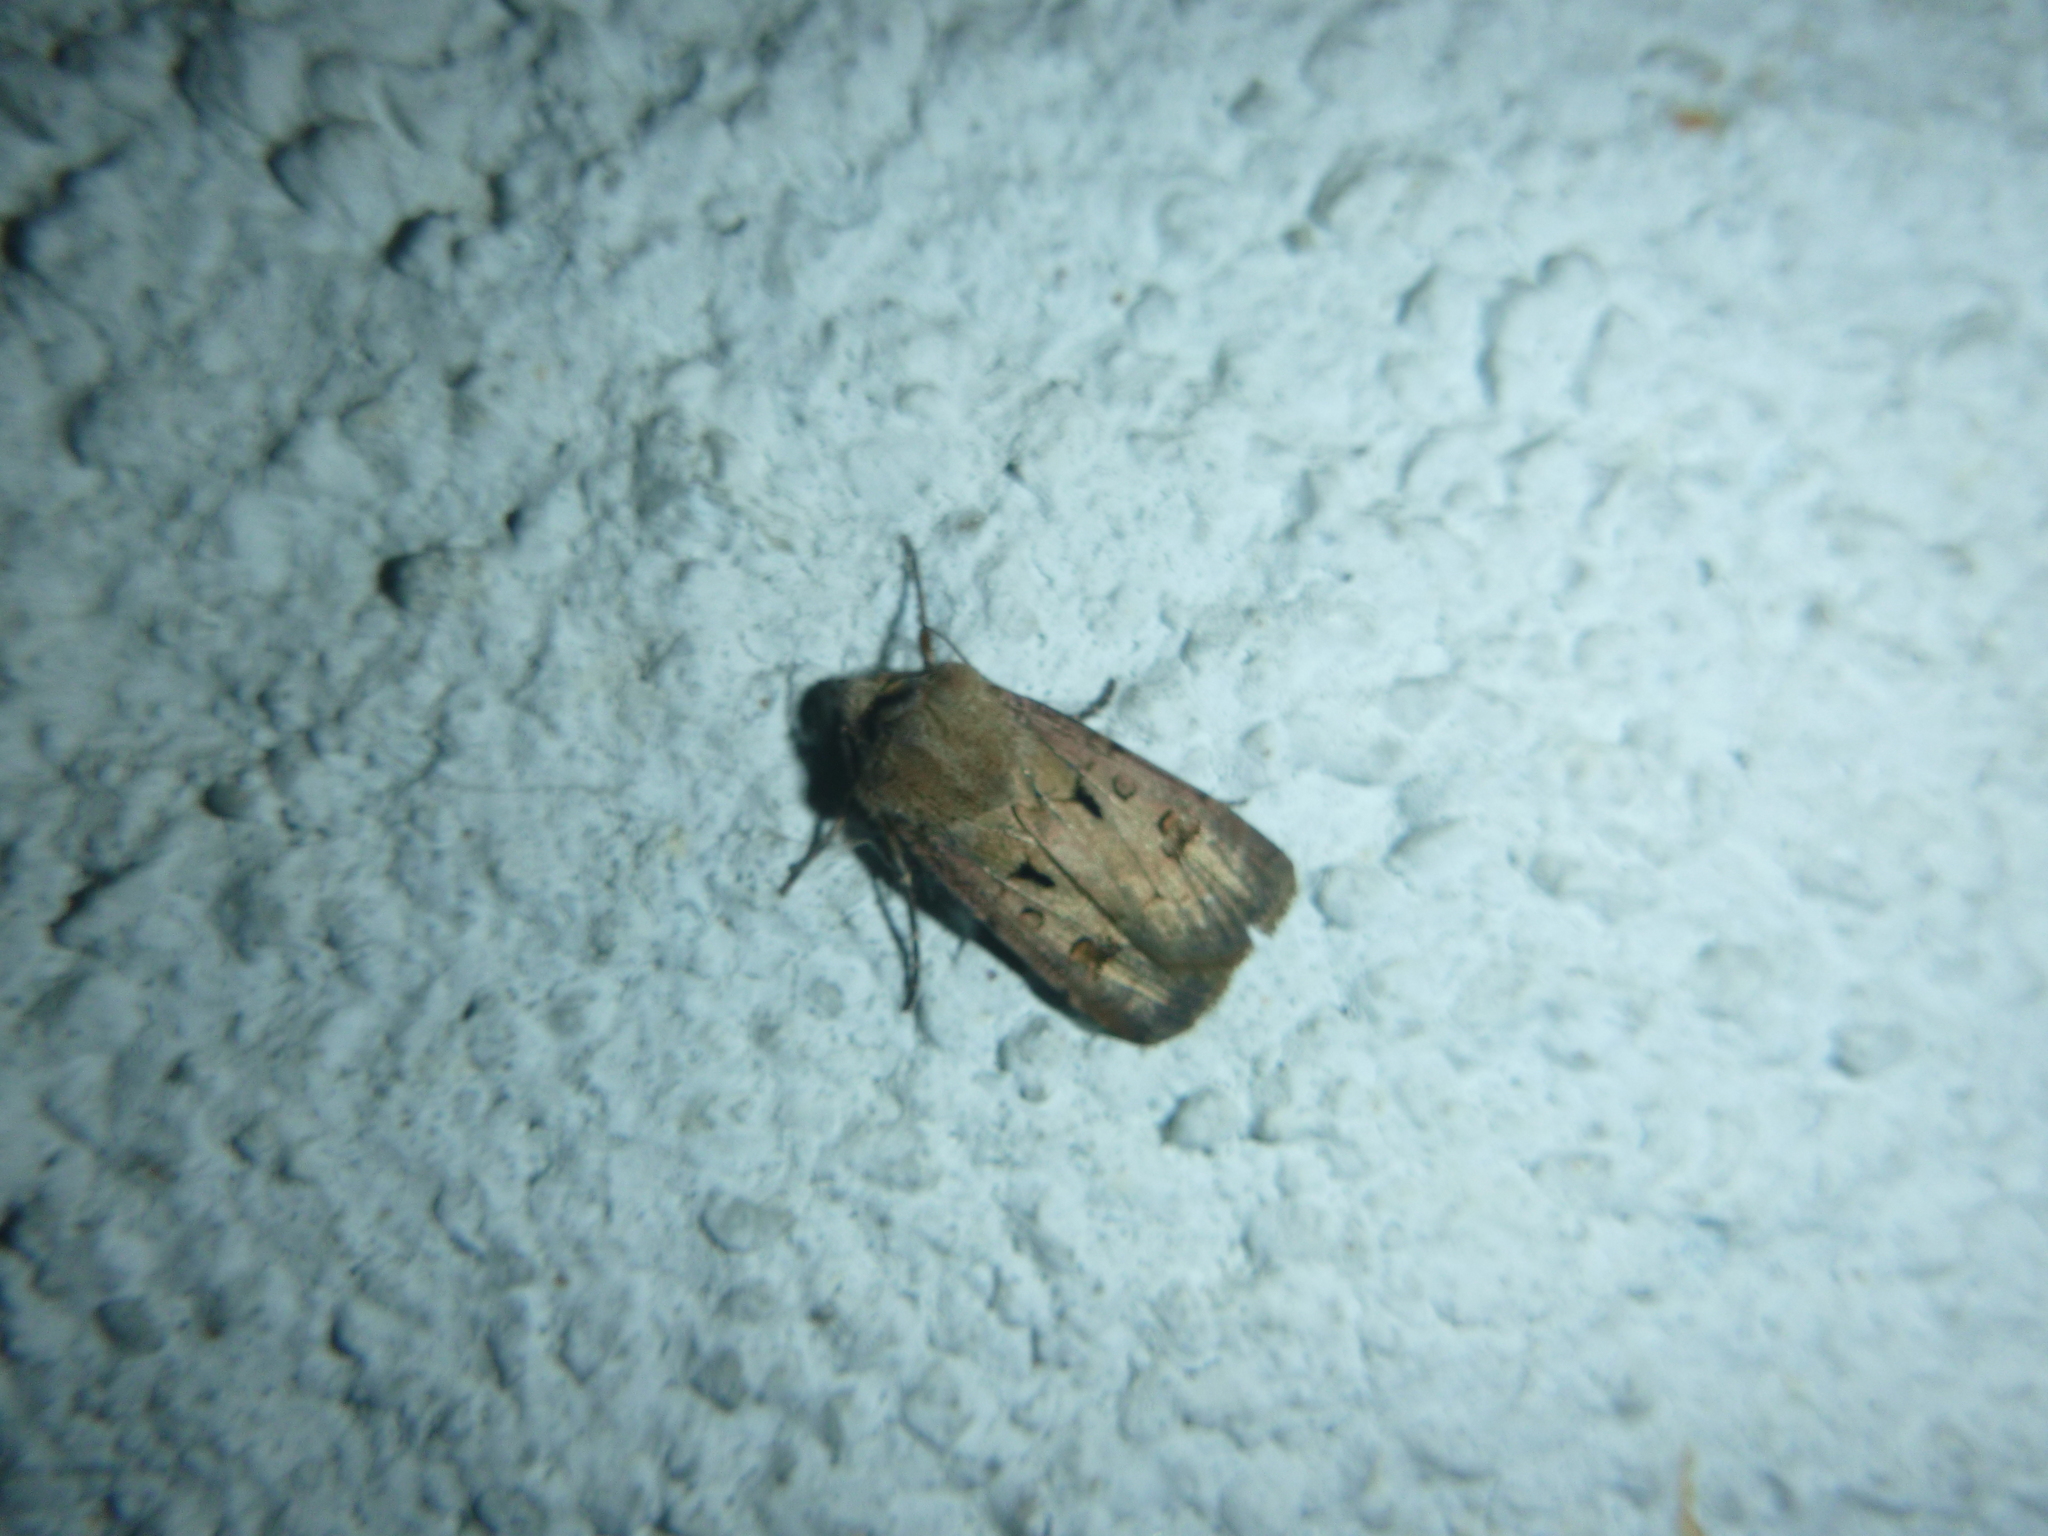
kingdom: Animalia
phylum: Arthropoda
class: Insecta
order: Lepidoptera
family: Noctuidae
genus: Agrotis
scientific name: Agrotis exclamationis
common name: Heart and dart
